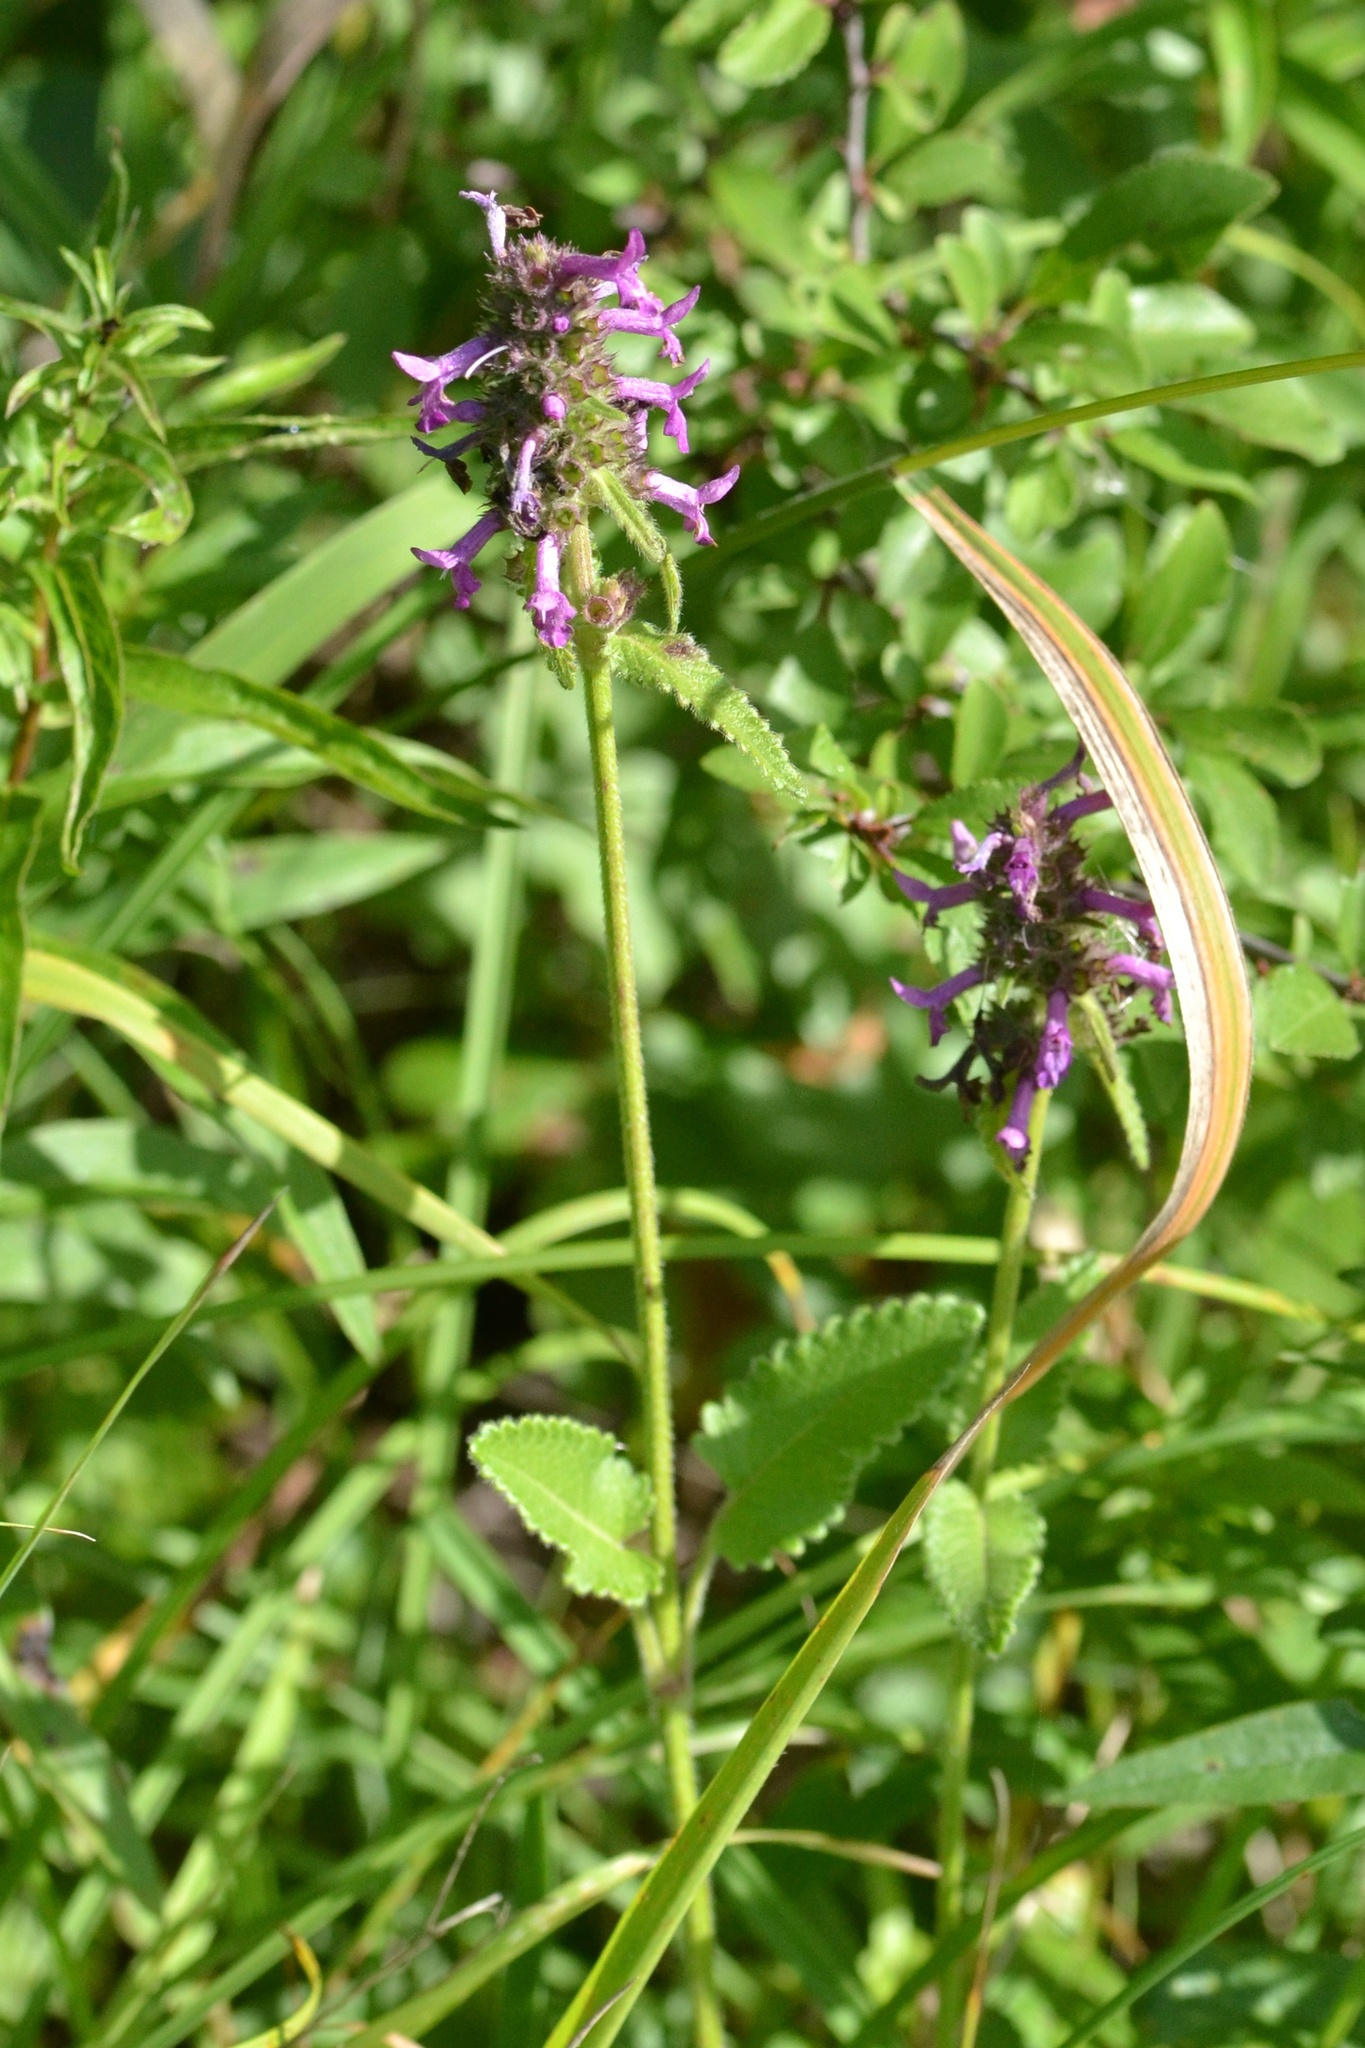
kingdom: Plantae
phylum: Tracheophyta
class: Magnoliopsida
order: Lamiales
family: Lamiaceae
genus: Betonica
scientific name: Betonica officinalis
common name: Bishop's-wort
